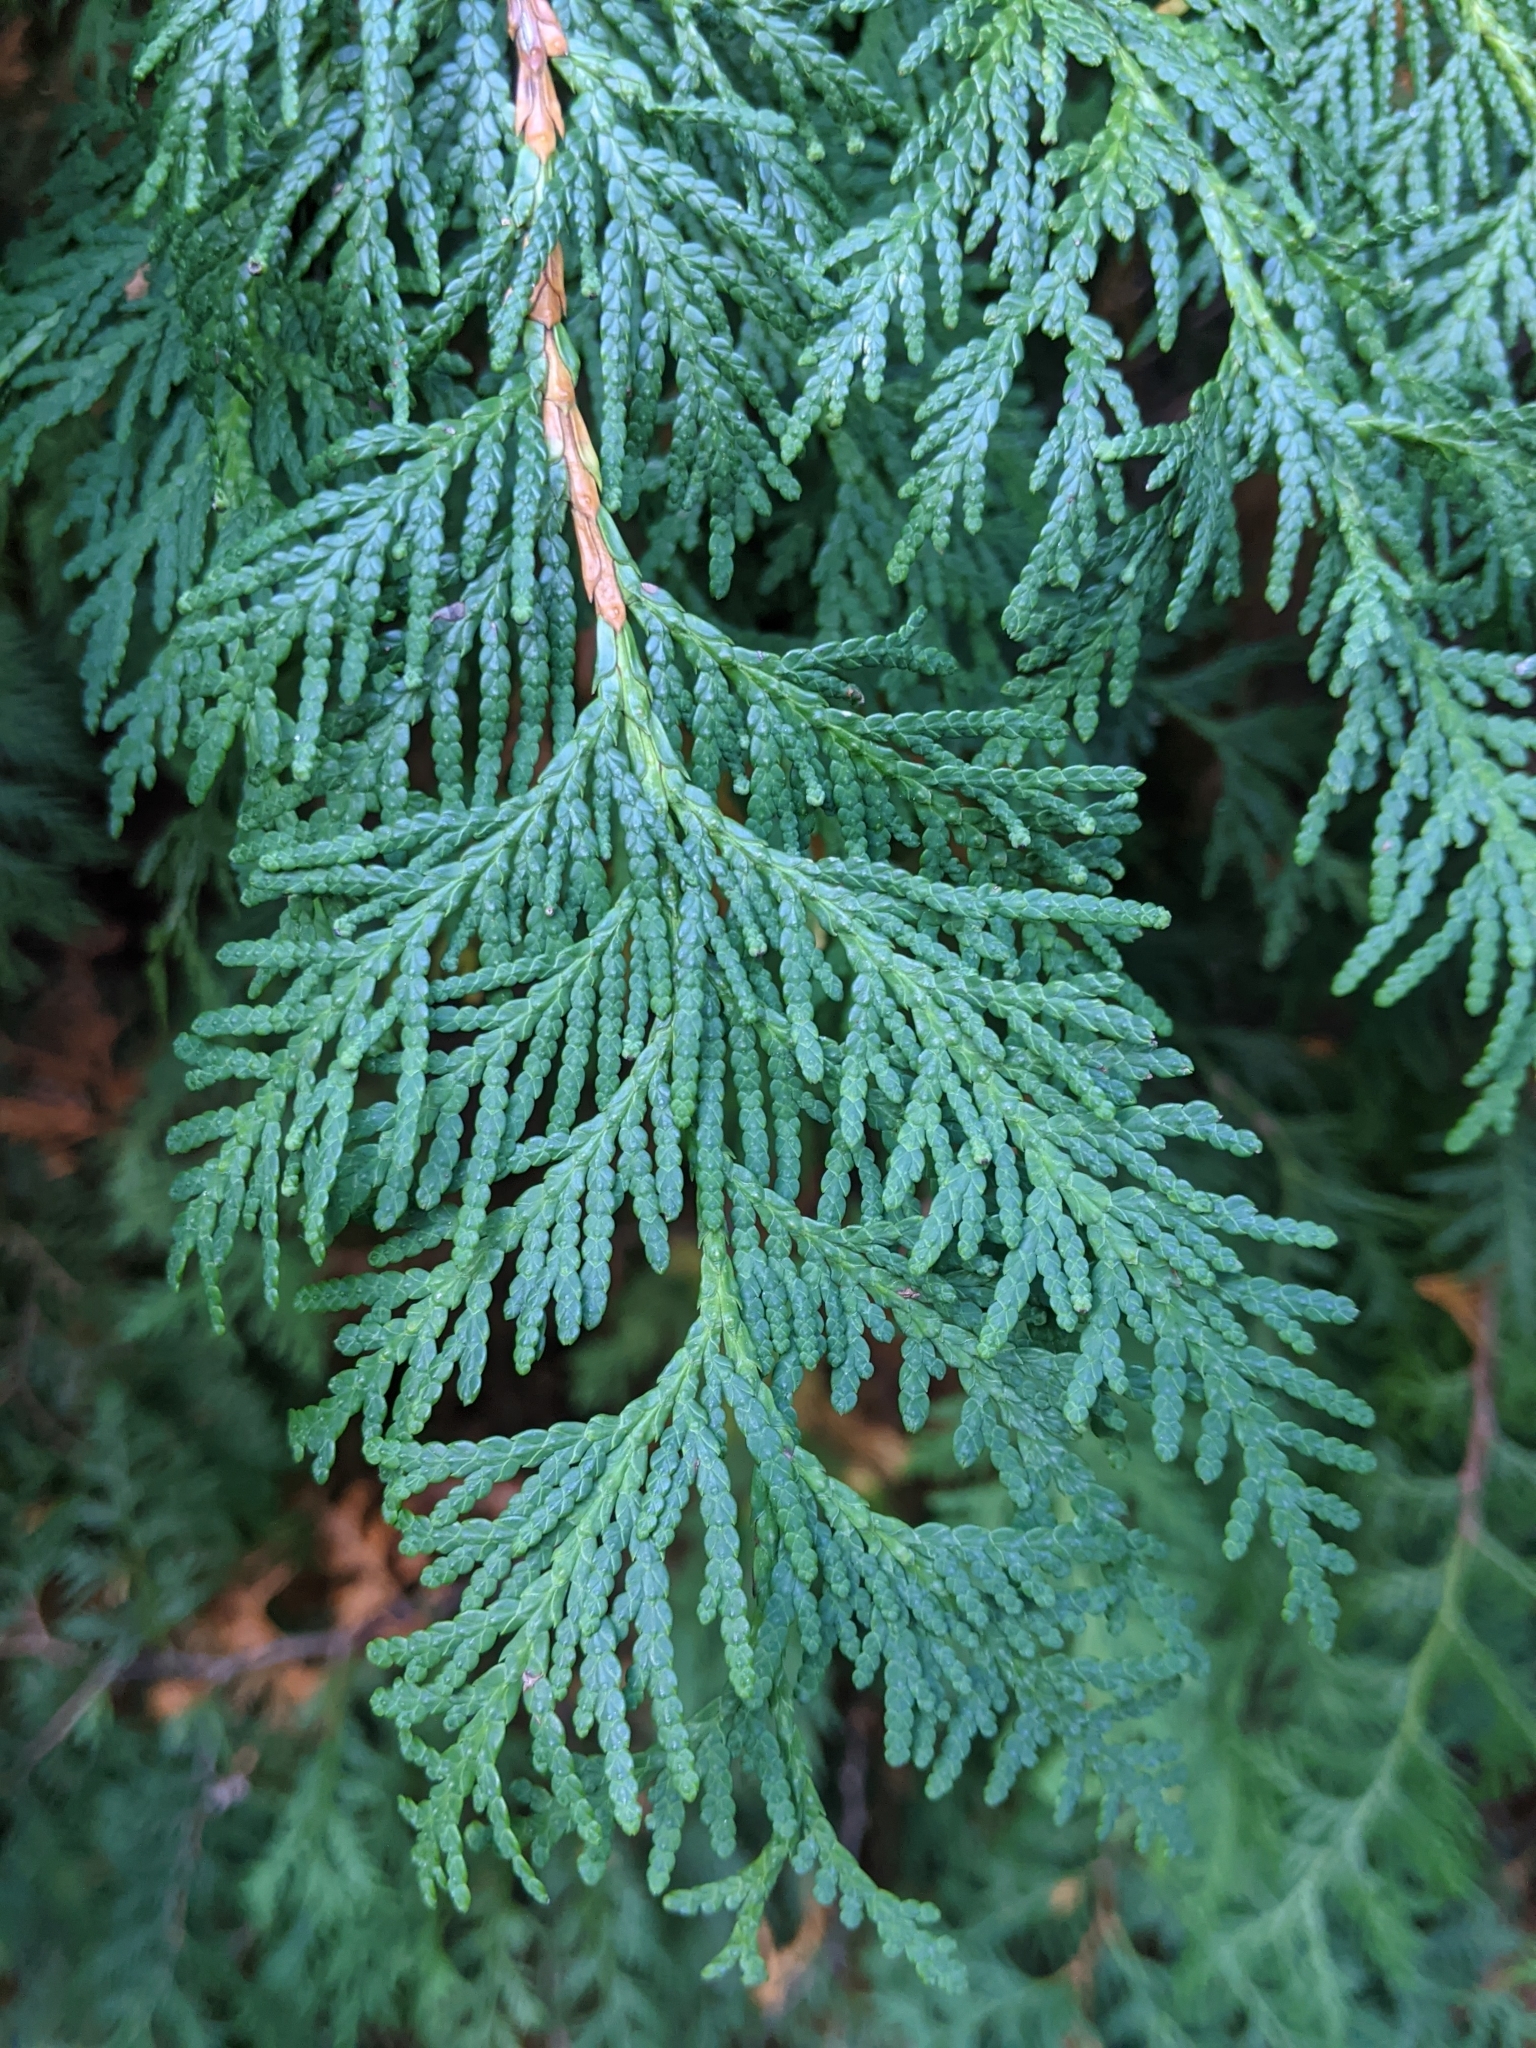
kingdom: Plantae
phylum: Tracheophyta
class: Pinopsida
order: Pinales
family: Cupressaceae
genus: Thuja
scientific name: Thuja occidentalis
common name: Northern white-cedar
